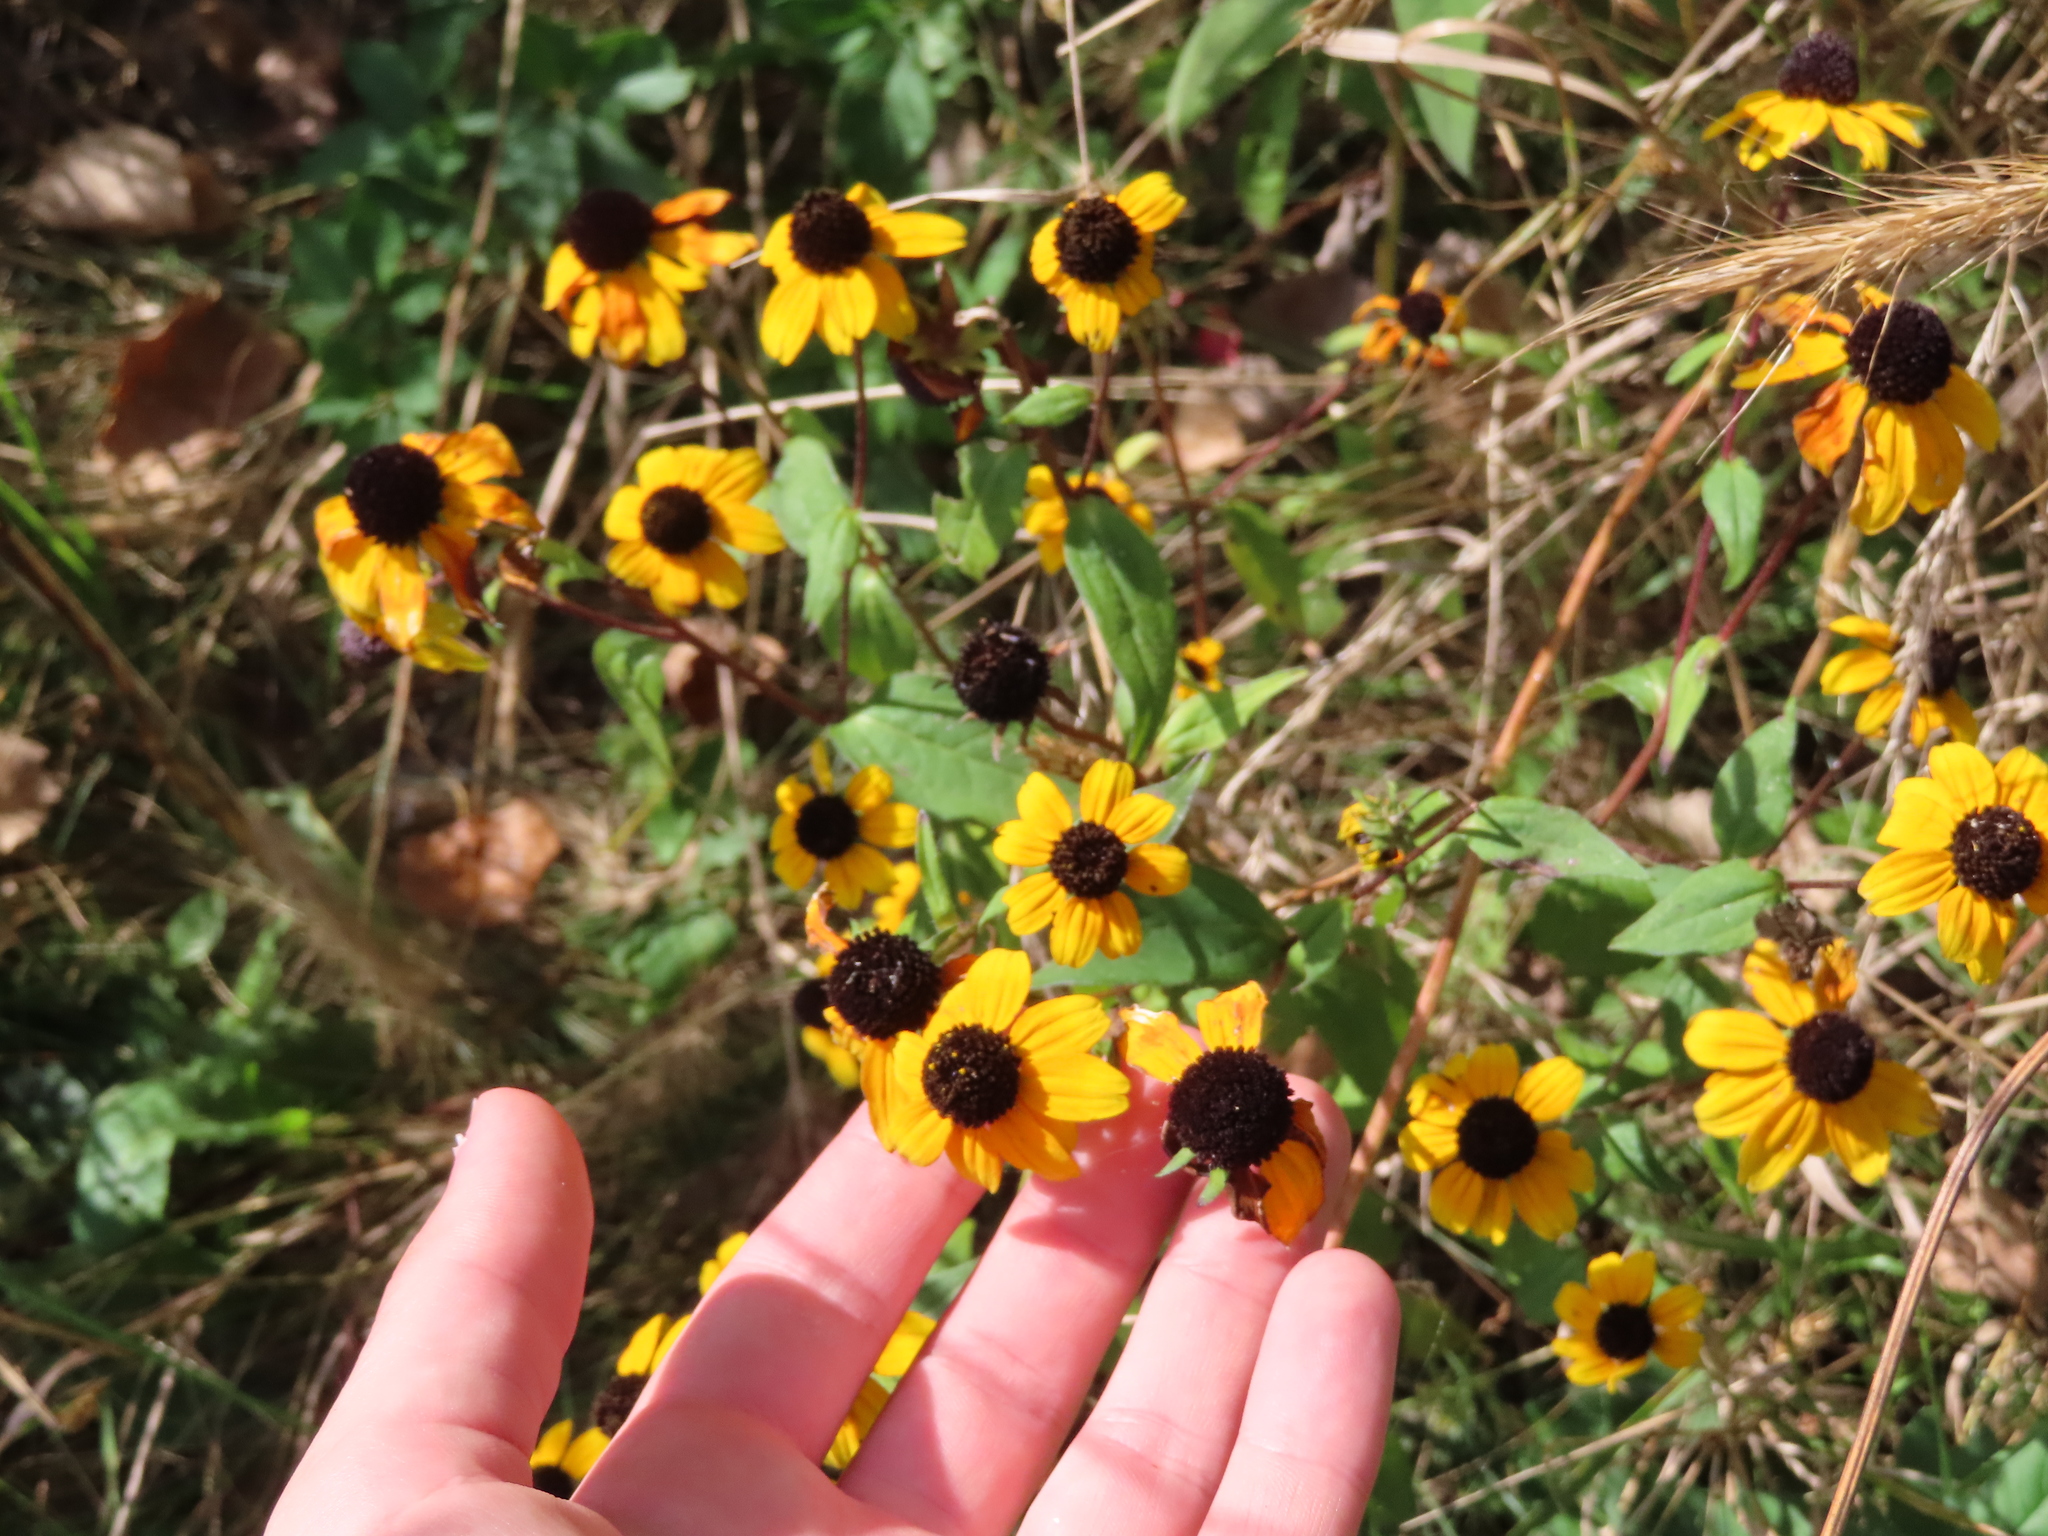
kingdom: Plantae
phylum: Tracheophyta
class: Magnoliopsida
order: Asterales
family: Asteraceae
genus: Rudbeckia
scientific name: Rudbeckia triloba
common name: Thin-leaved coneflower
